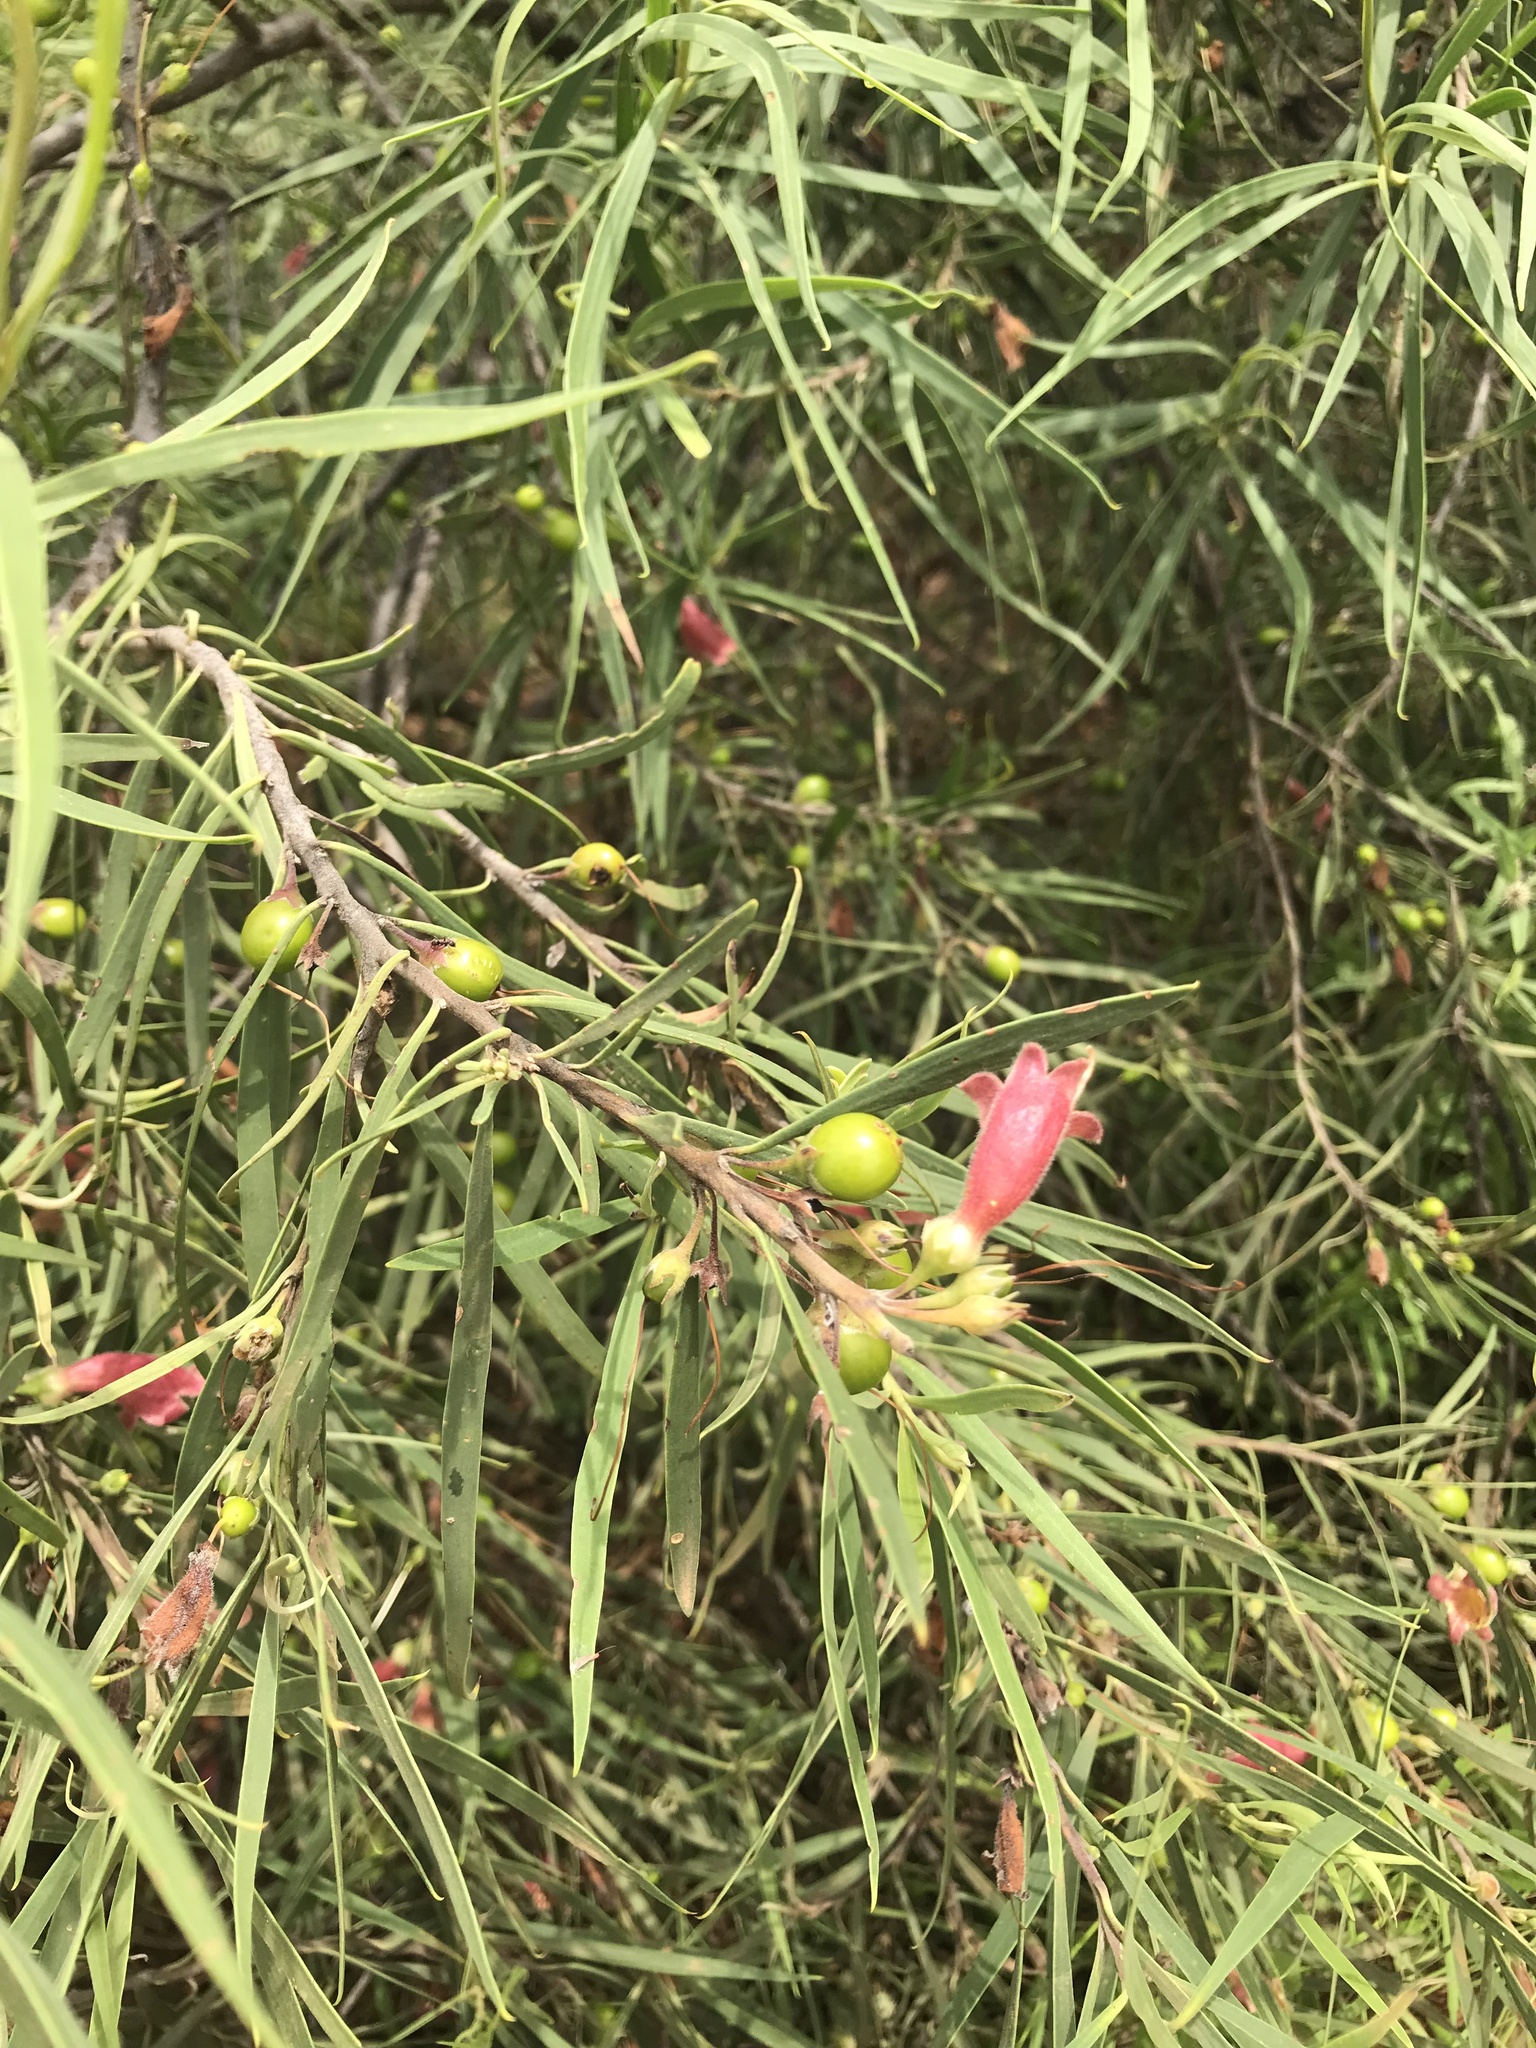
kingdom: Plantae
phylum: Tracheophyta
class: Magnoliopsida
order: Lamiales
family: Scrophulariaceae
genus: Eremophila
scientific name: Eremophila longifolia
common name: Longleaf emubush
